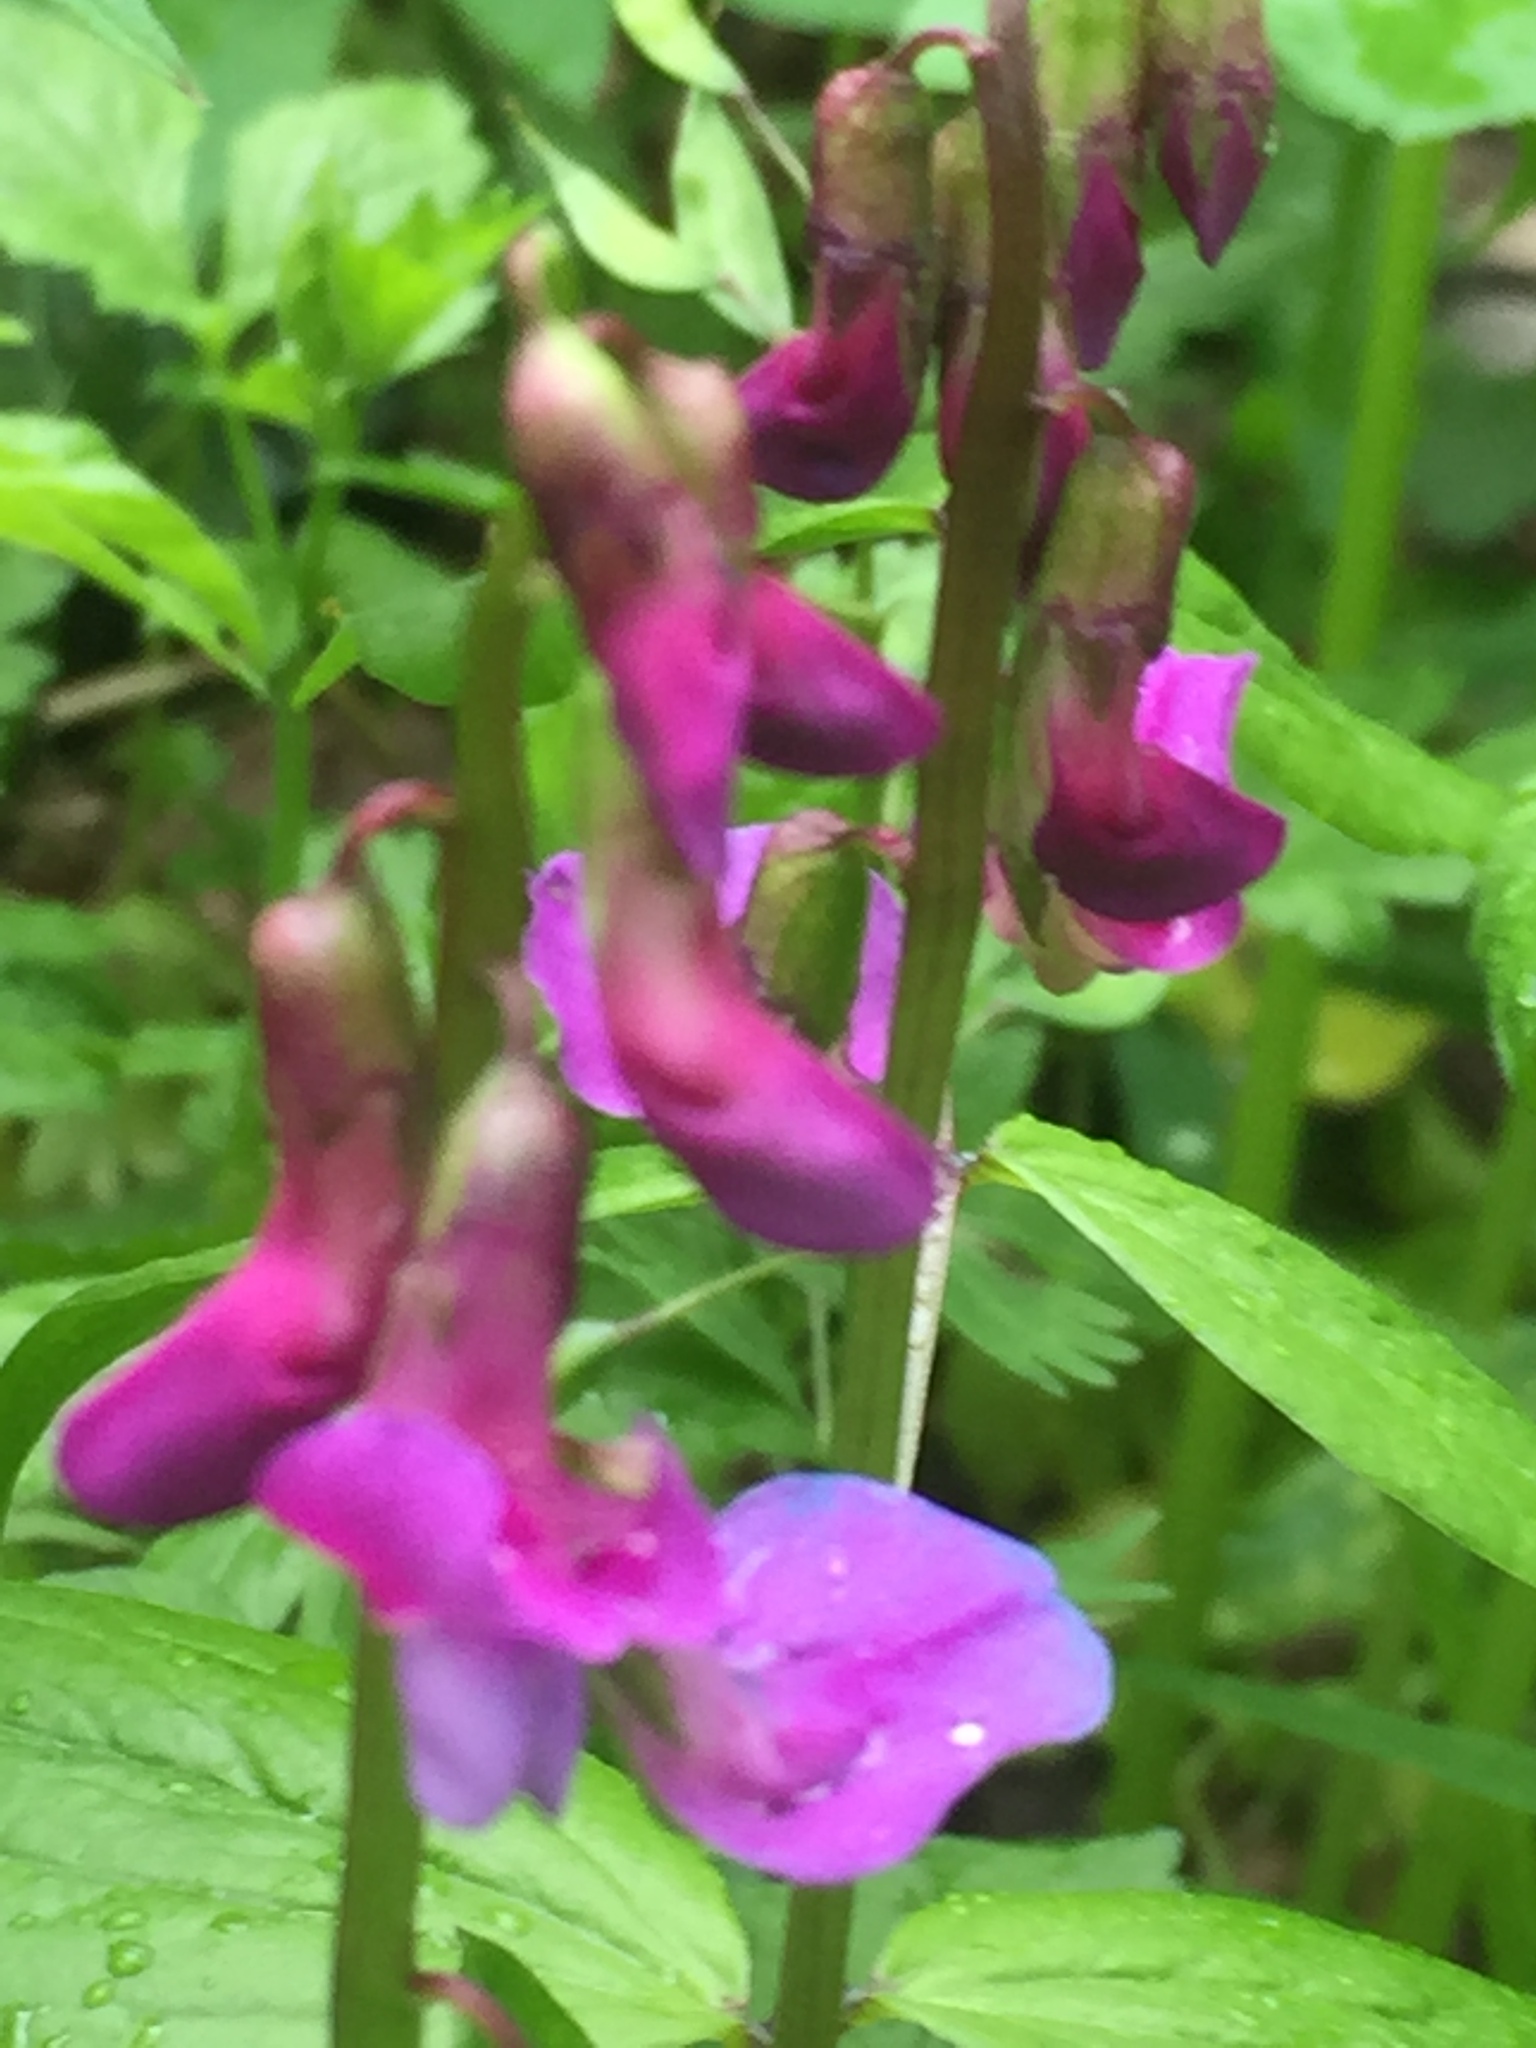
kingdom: Plantae
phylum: Tracheophyta
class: Magnoliopsida
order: Fabales
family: Fabaceae
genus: Lathyrus
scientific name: Lathyrus vernus
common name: Spring pea
